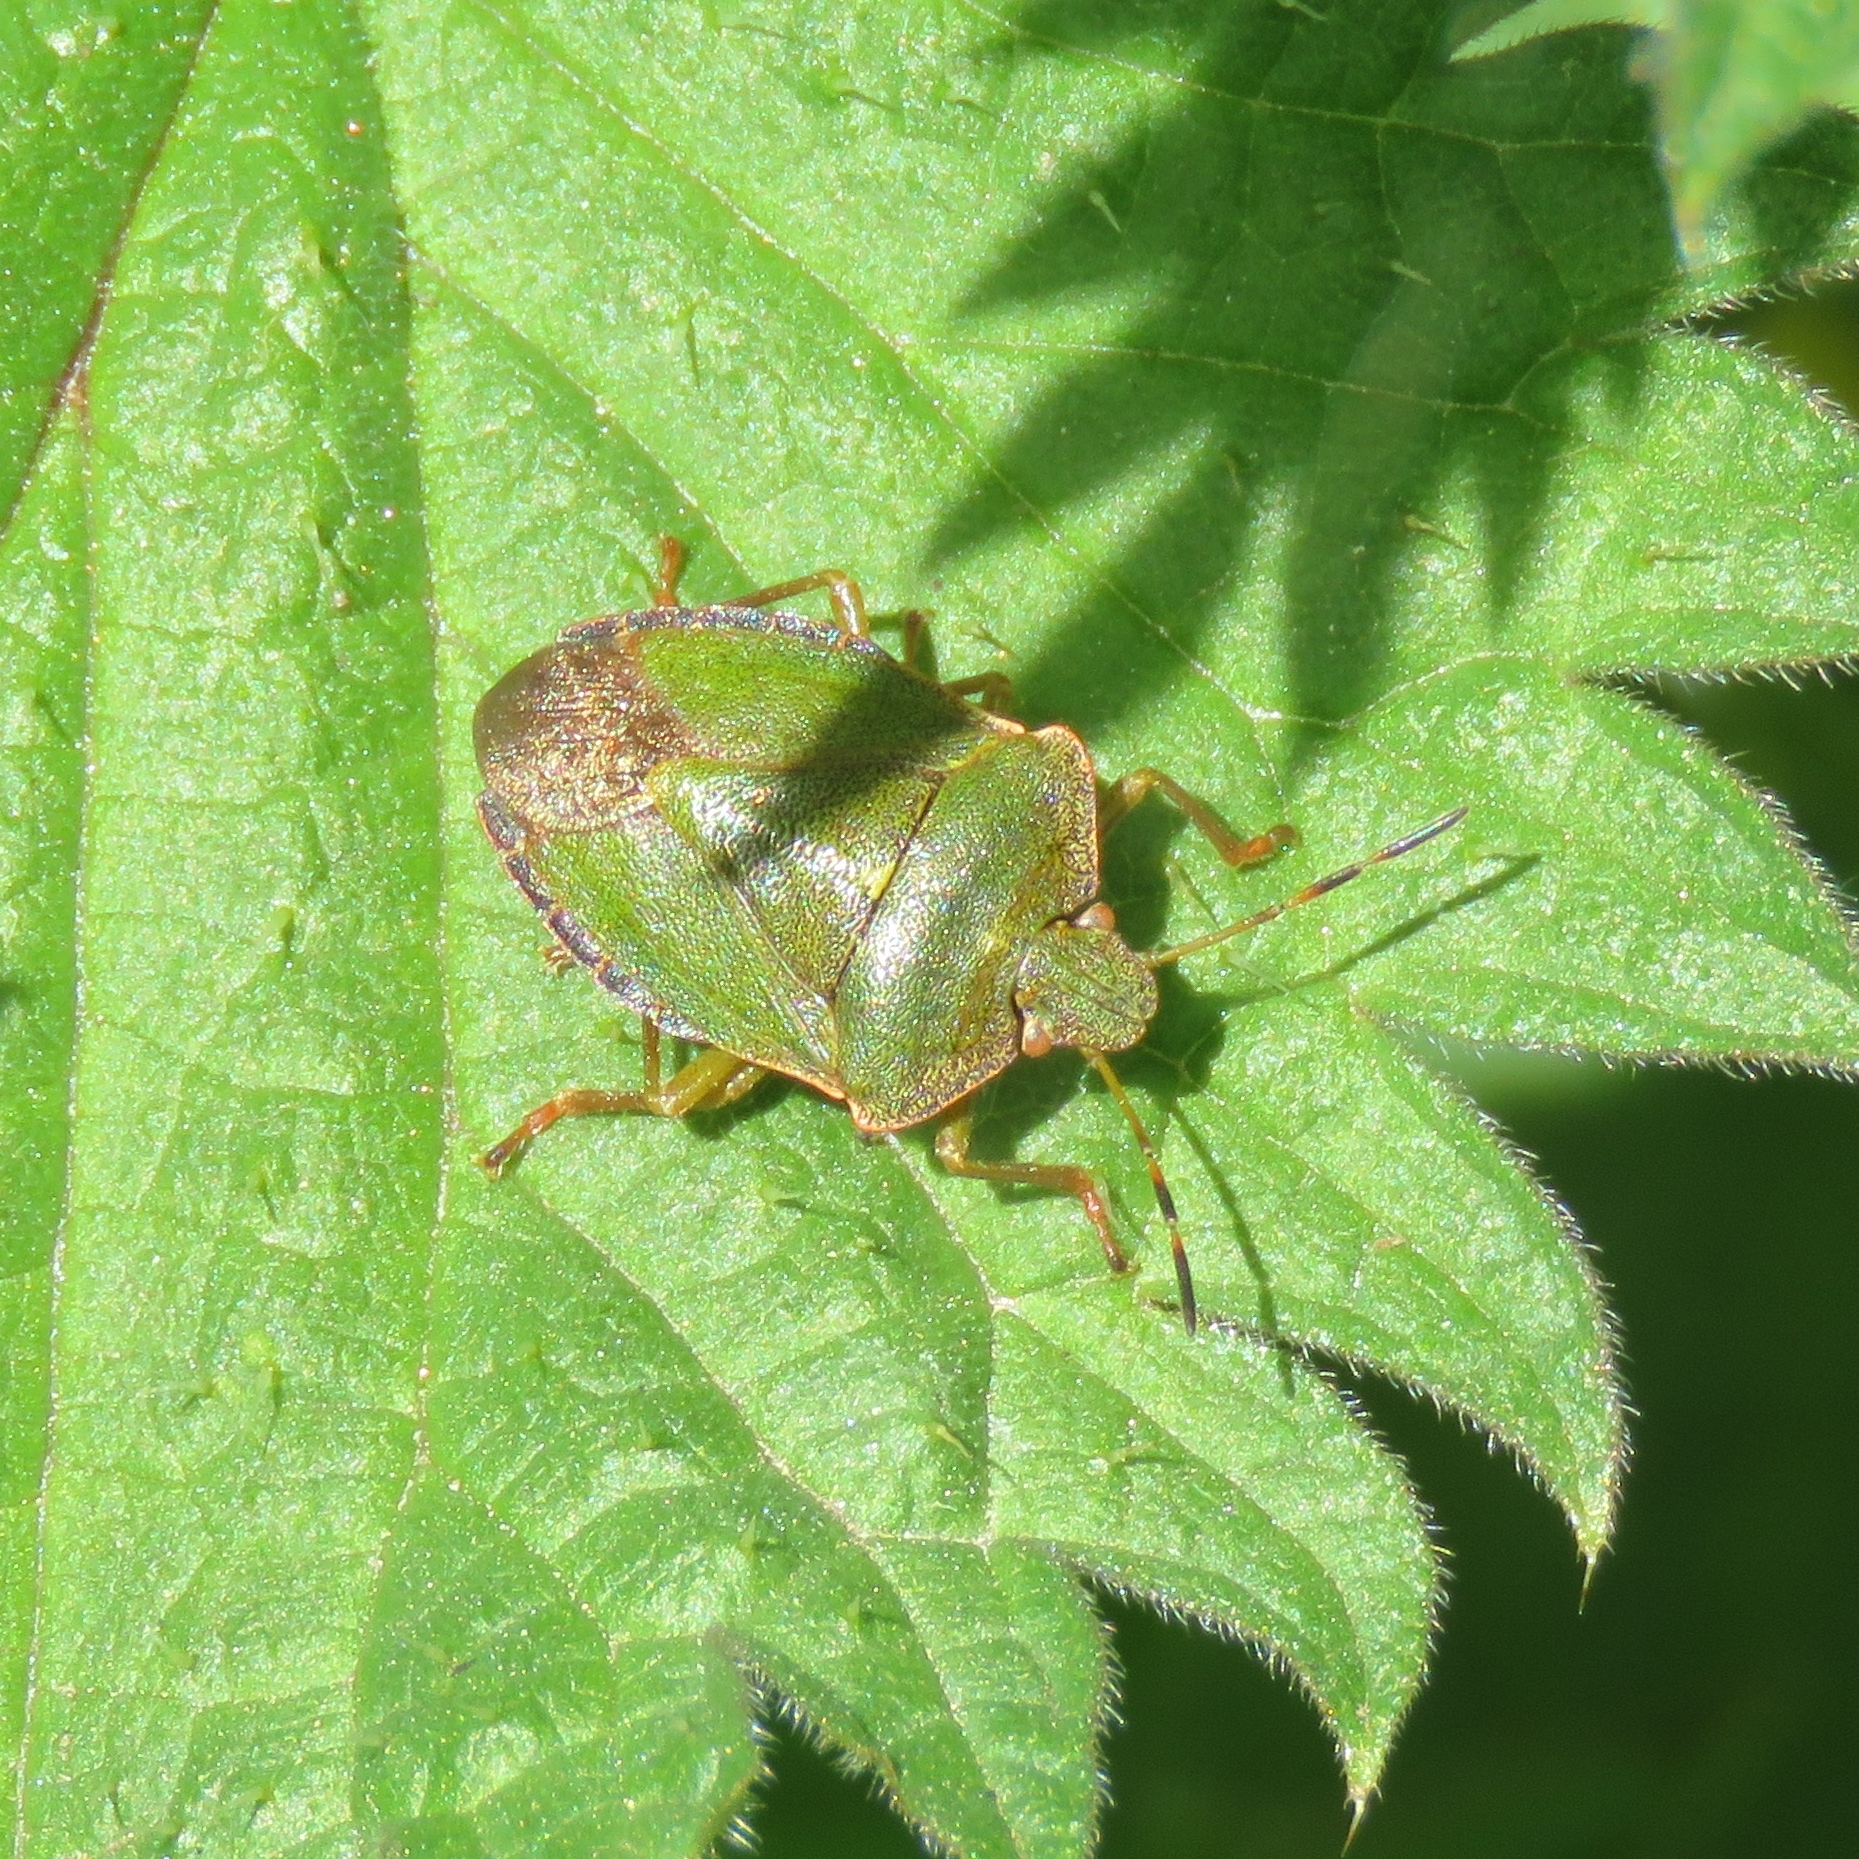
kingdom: Animalia
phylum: Arthropoda
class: Insecta
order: Hemiptera
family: Pentatomidae
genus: Palomena
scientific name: Palomena prasina
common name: Green shieldbug
